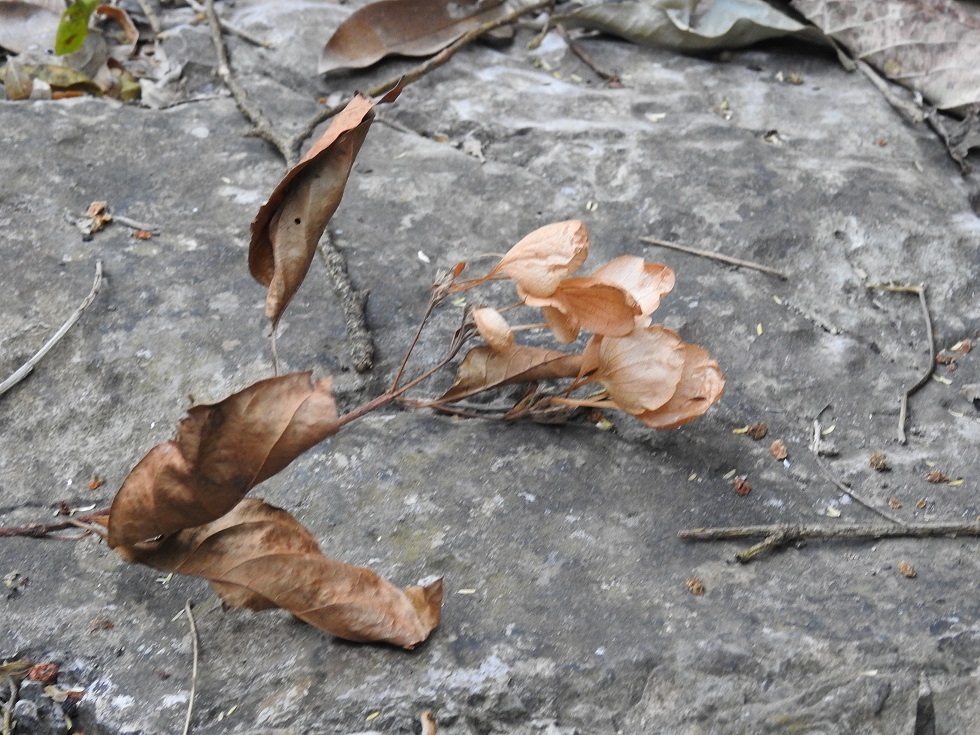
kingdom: Plantae
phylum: Tracheophyta
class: Magnoliopsida
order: Gentianales
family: Rubiaceae
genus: Calycophyllum
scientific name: Calycophyllum candidissimum
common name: Dagame
